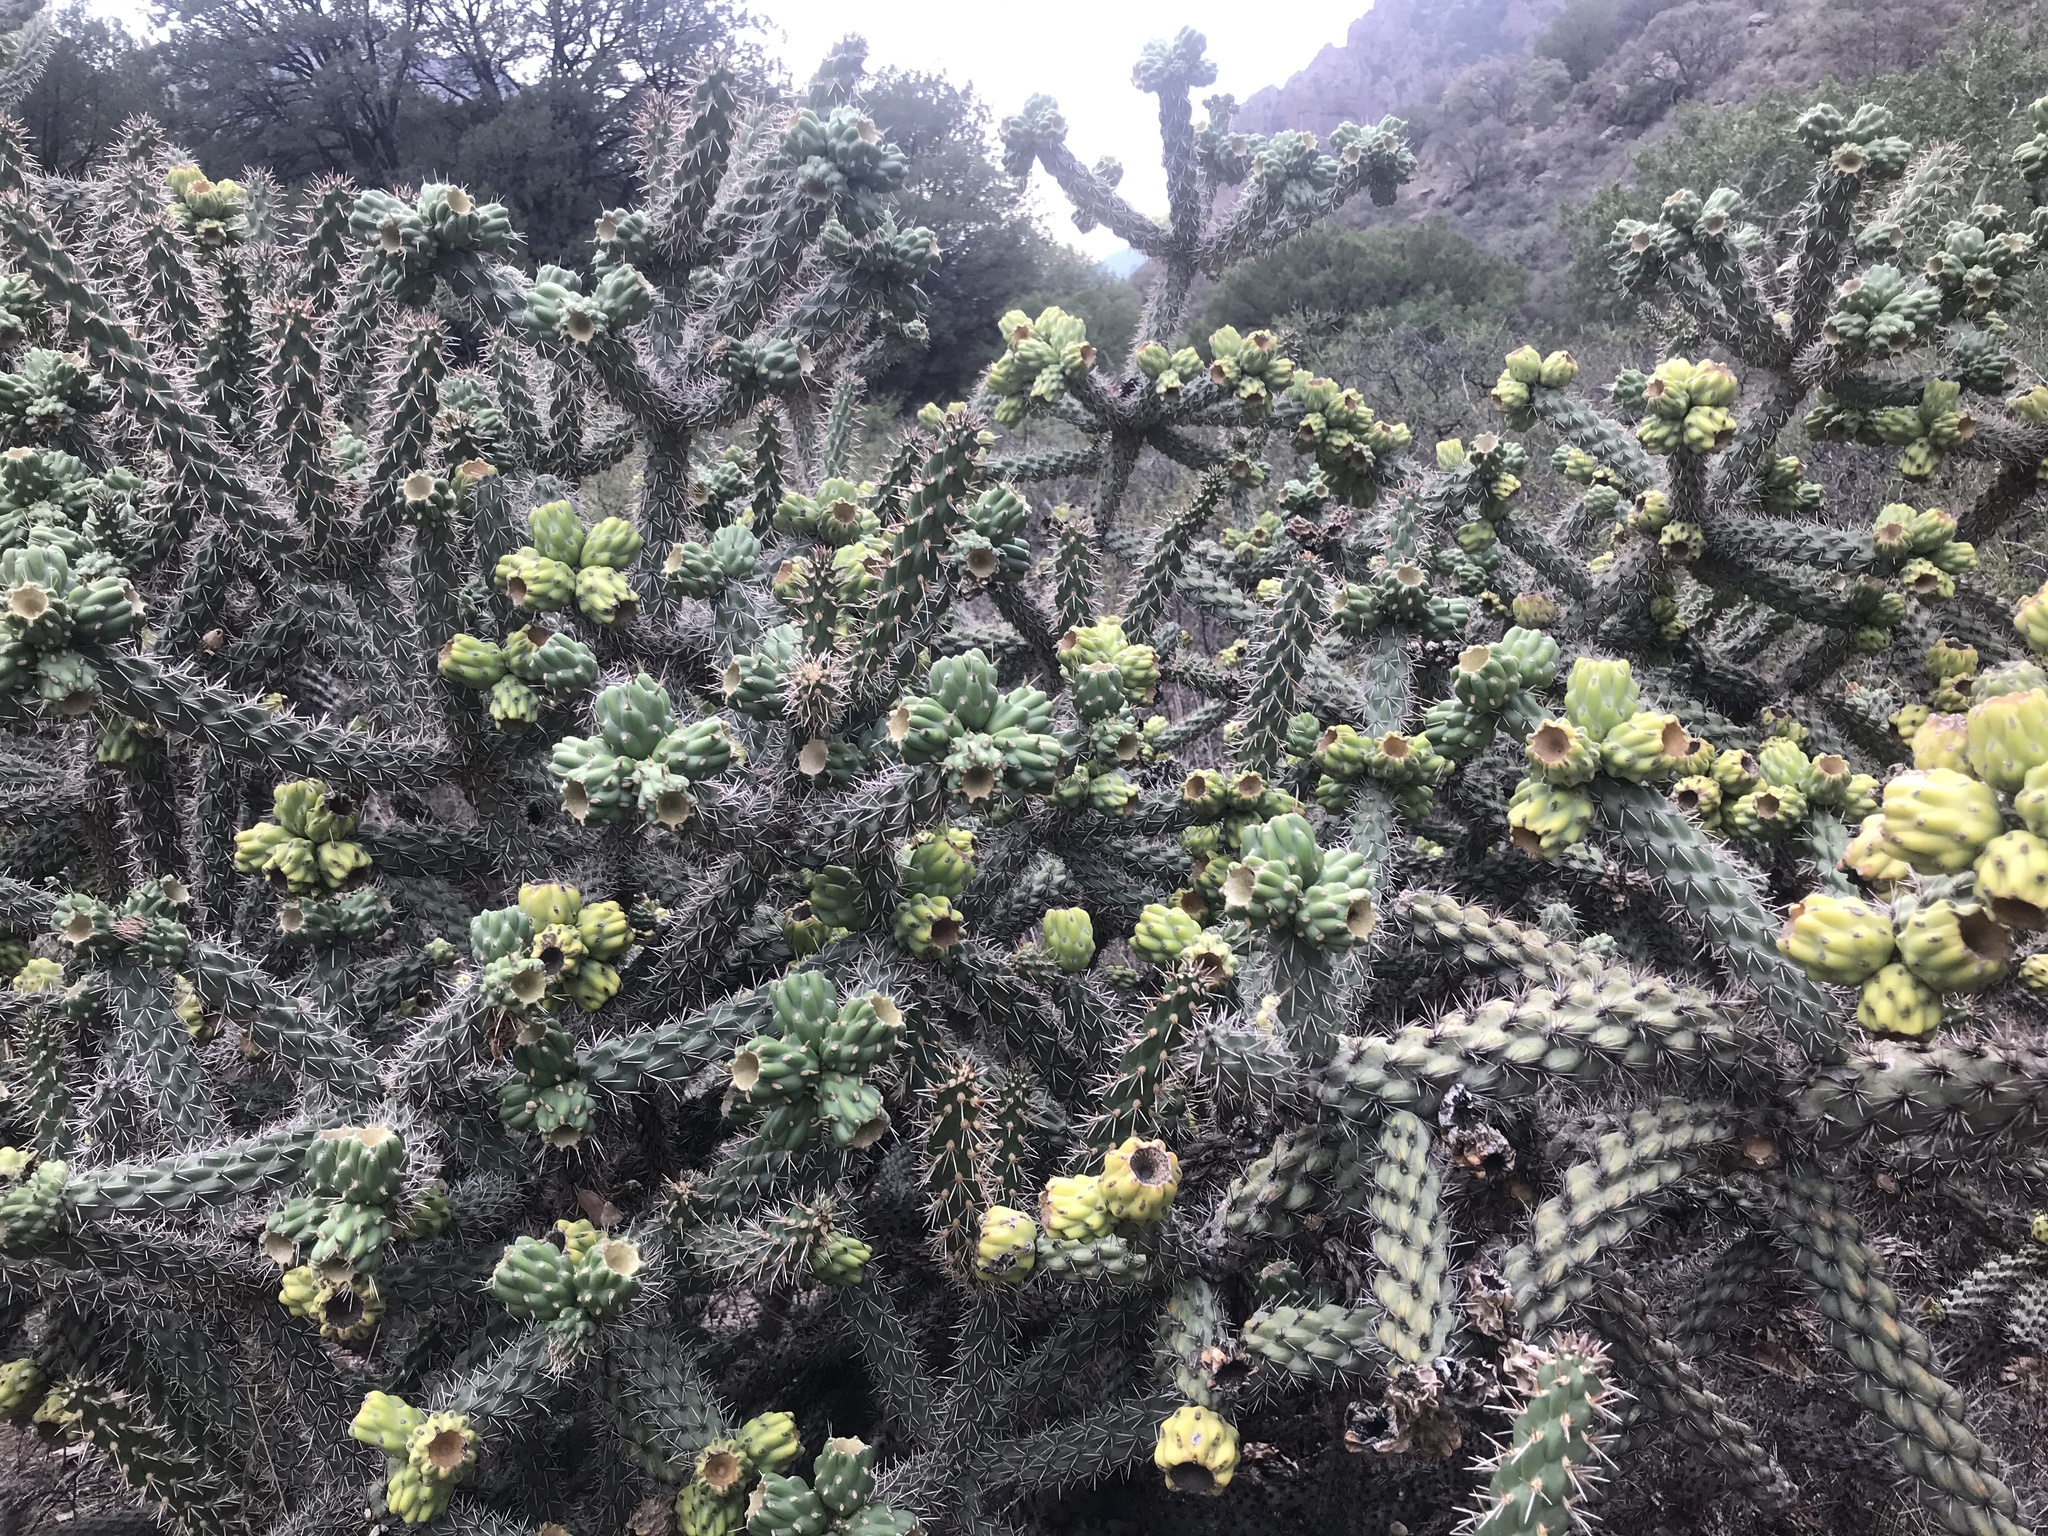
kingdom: Plantae
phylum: Tracheophyta
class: Magnoliopsida
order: Caryophyllales
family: Cactaceae
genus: Cylindropuntia
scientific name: Cylindropuntia imbricata
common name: Candelabrum cactus
